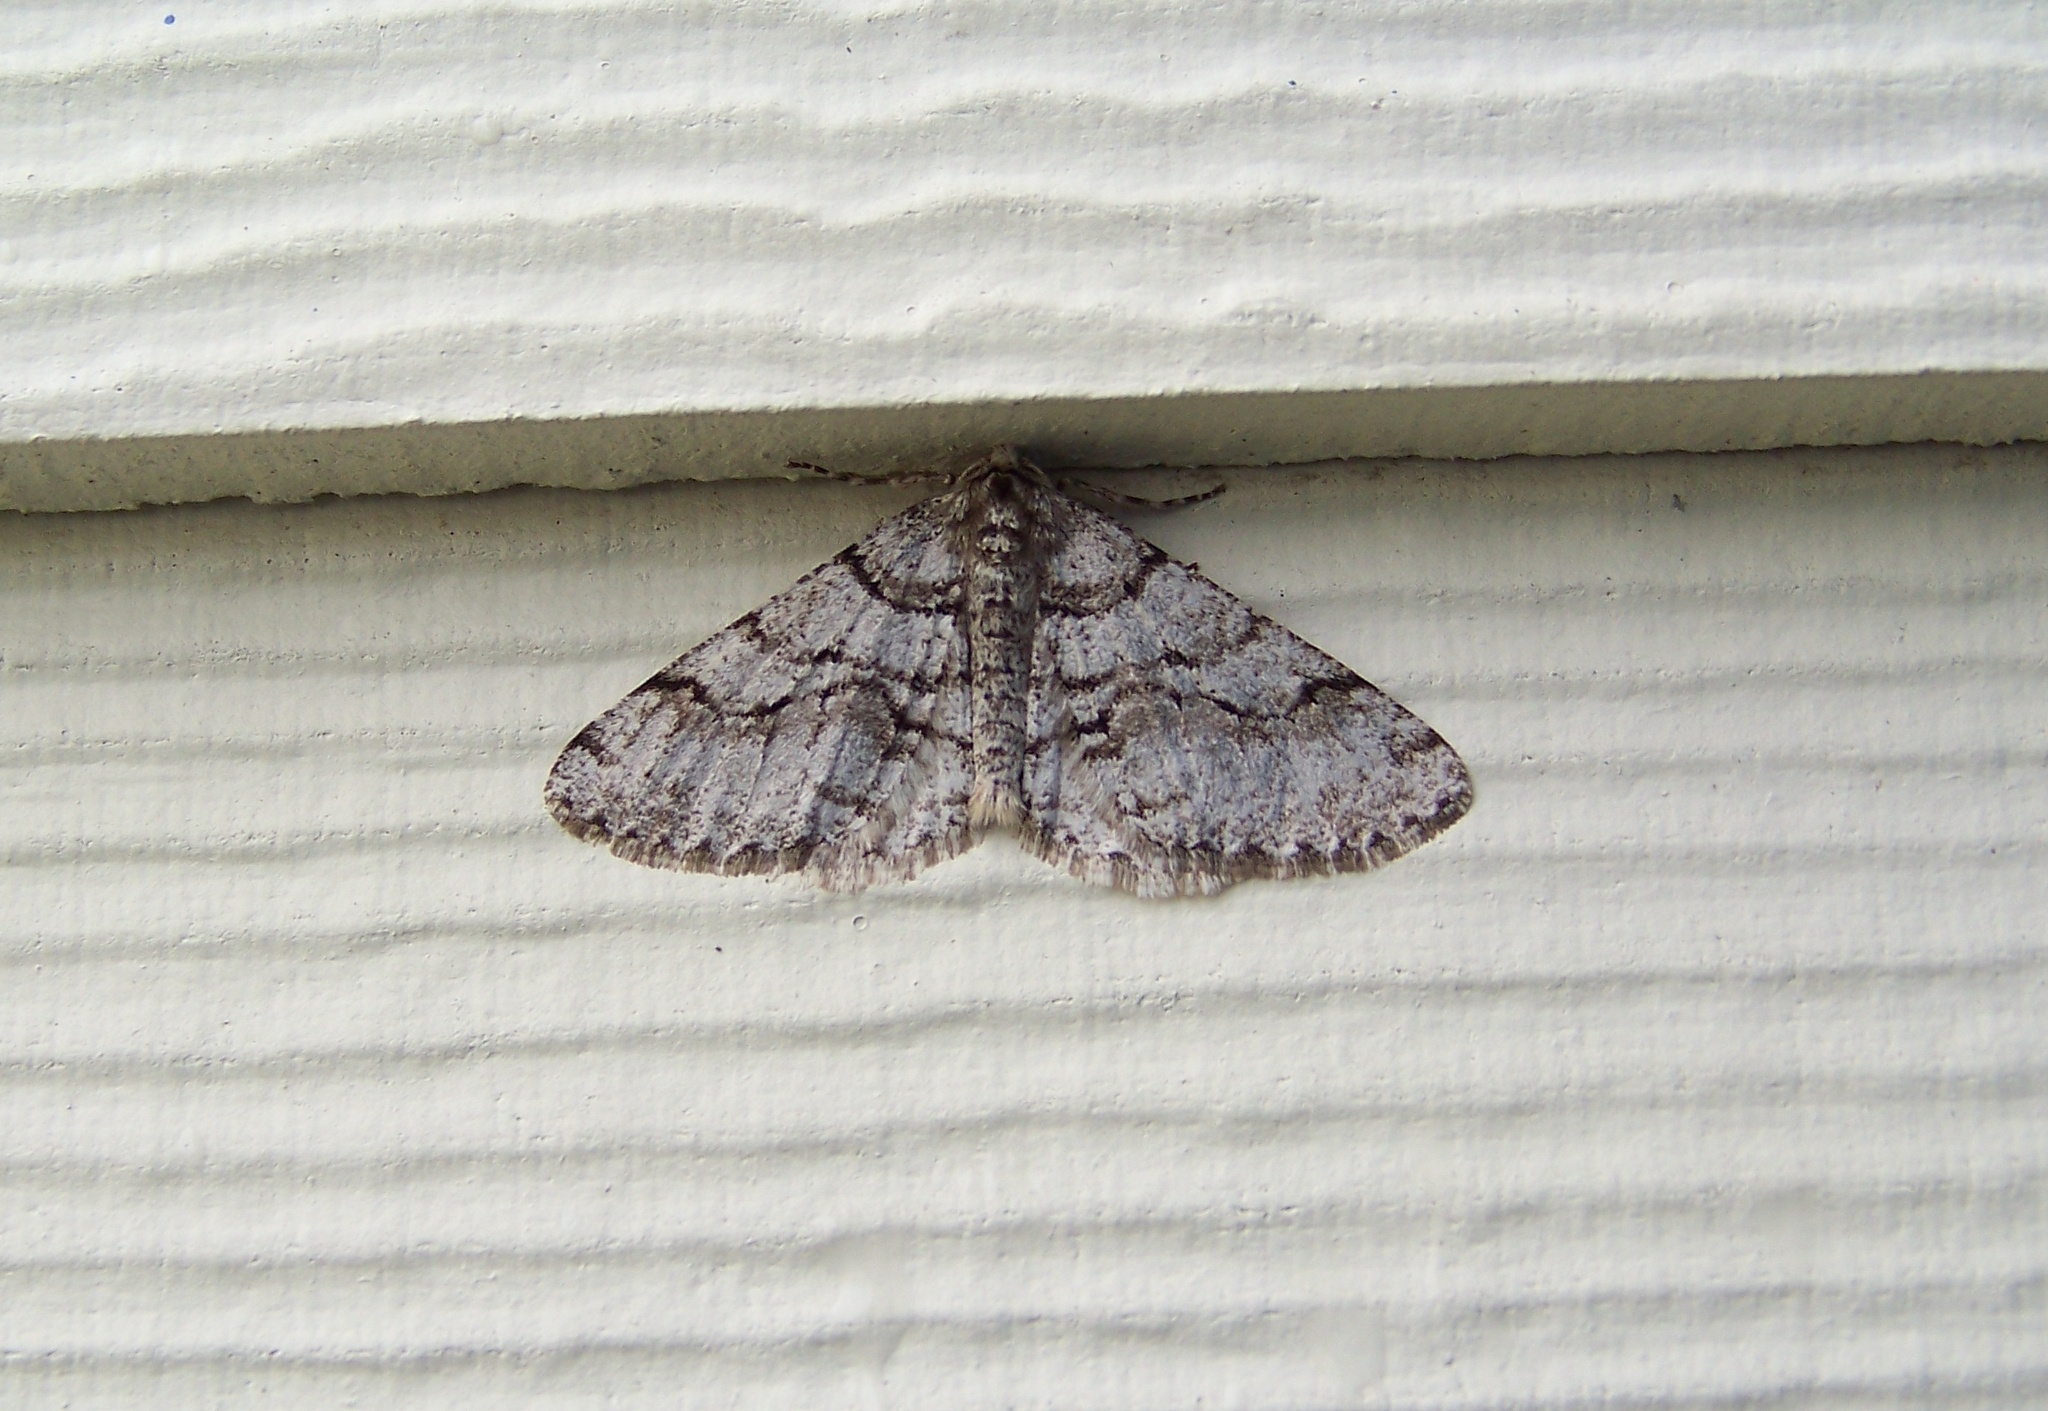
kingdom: Animalia
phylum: Arthropoda
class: Insecta
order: Lepidoptera
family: Geometridae
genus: Phigalia
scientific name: Phigalia titea
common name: Spiny looper
